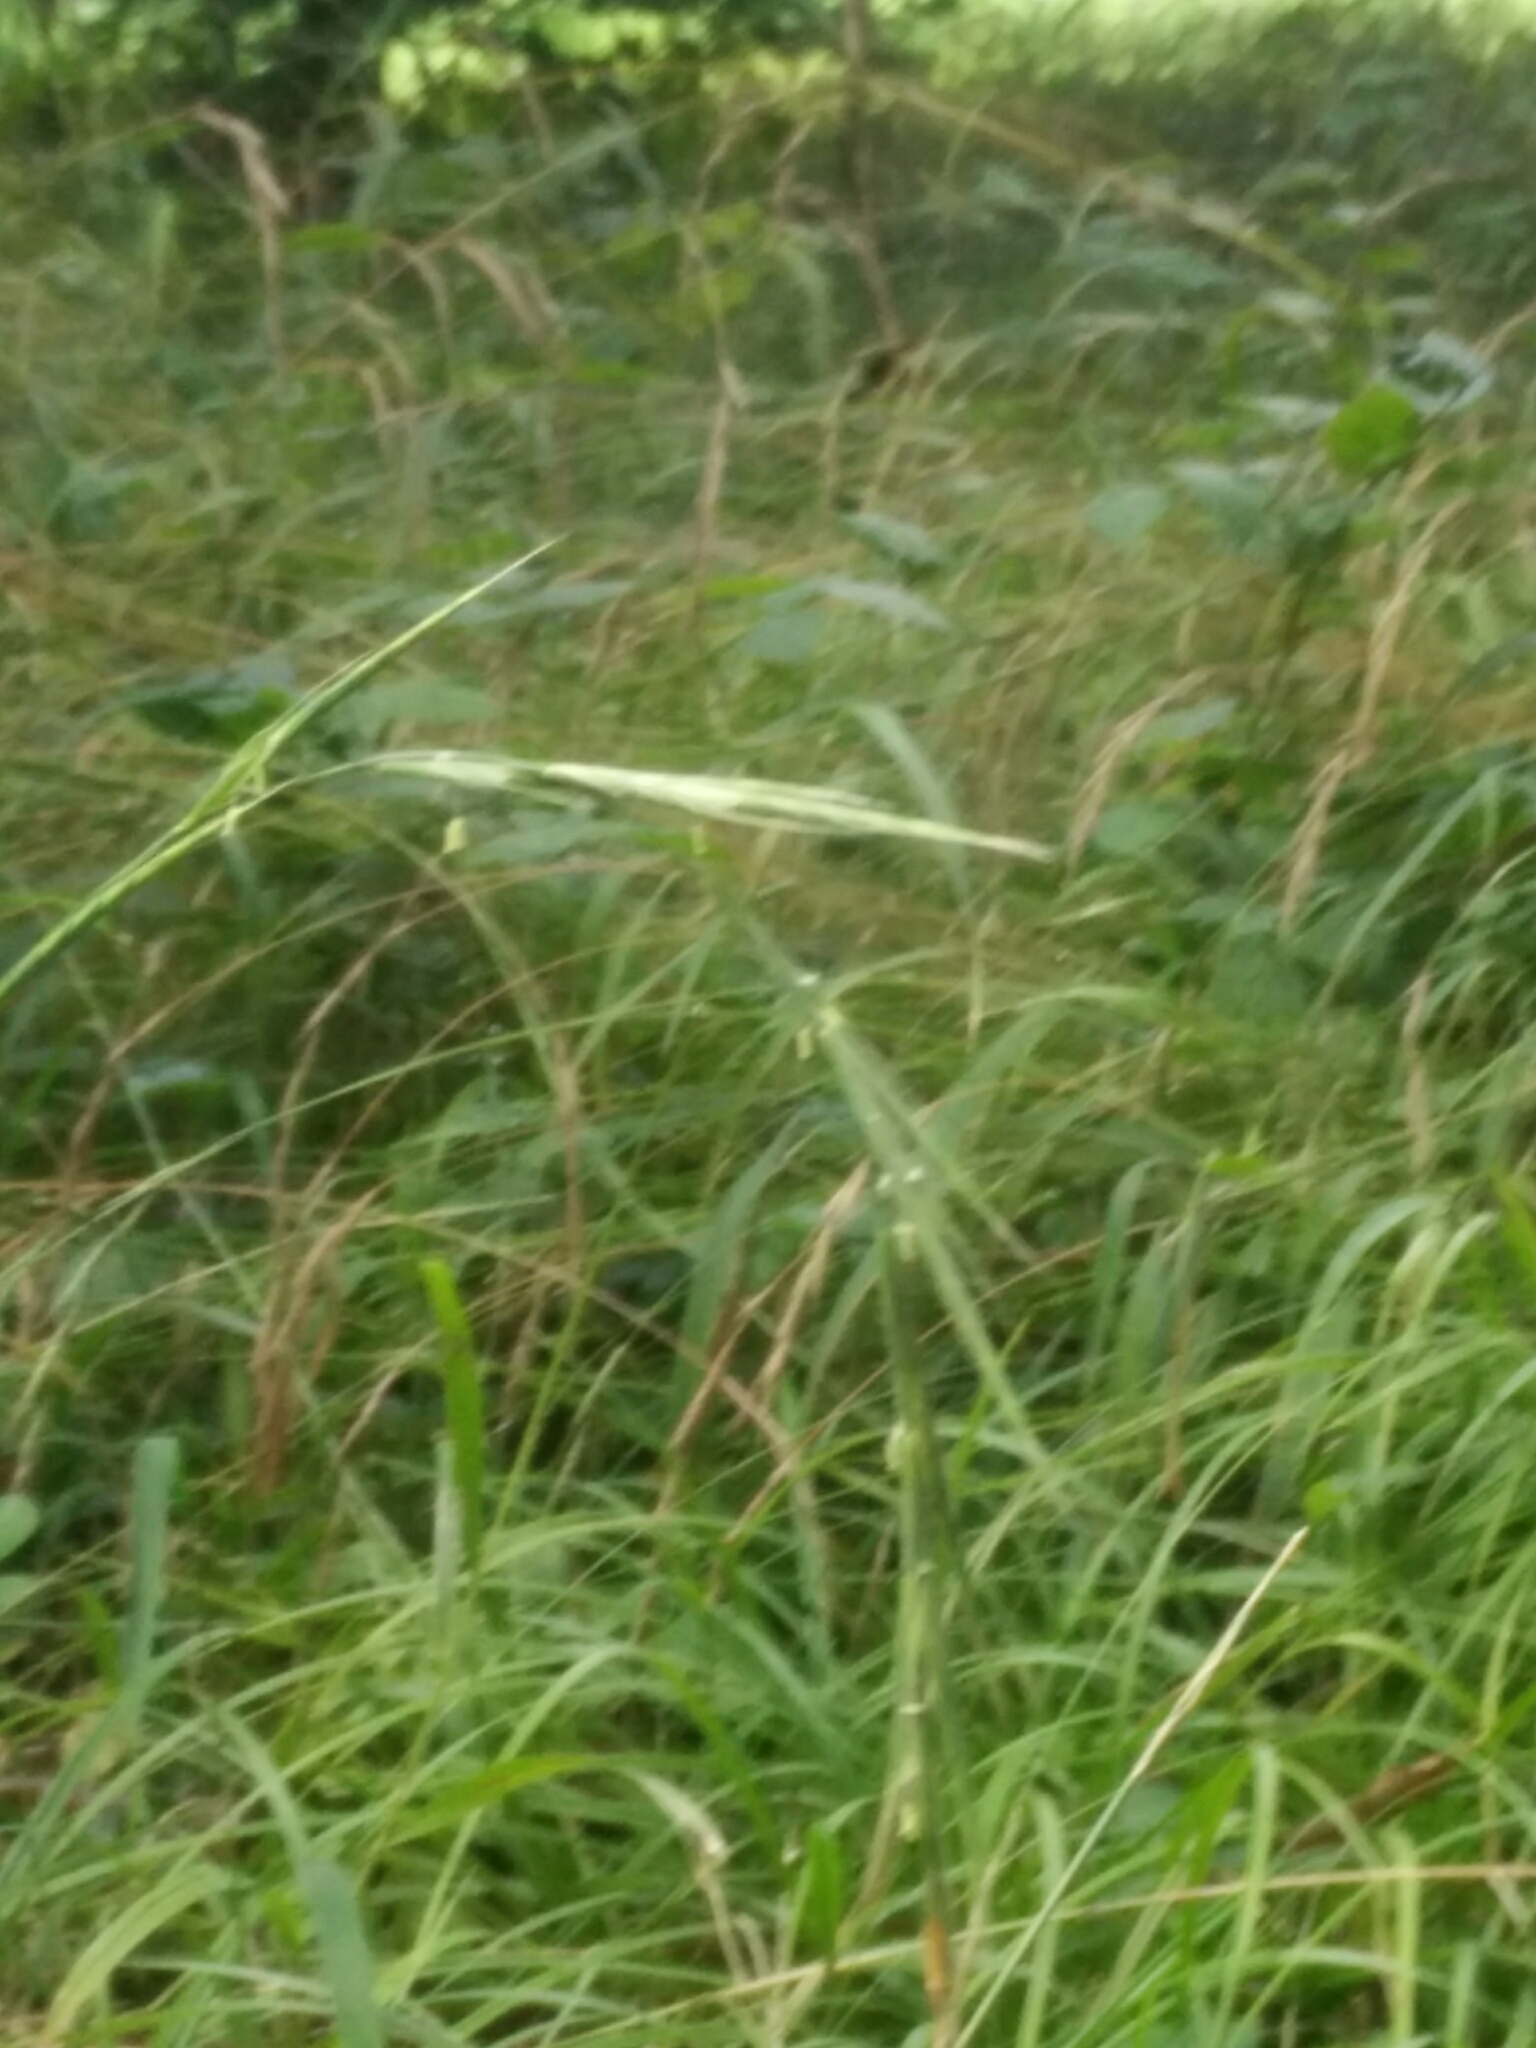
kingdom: Plantae
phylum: Tracheophyta
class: Liliopsida
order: Poales
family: Poaceae
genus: Brachypodium
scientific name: Brachypodium sylvaticum
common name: False-brome
